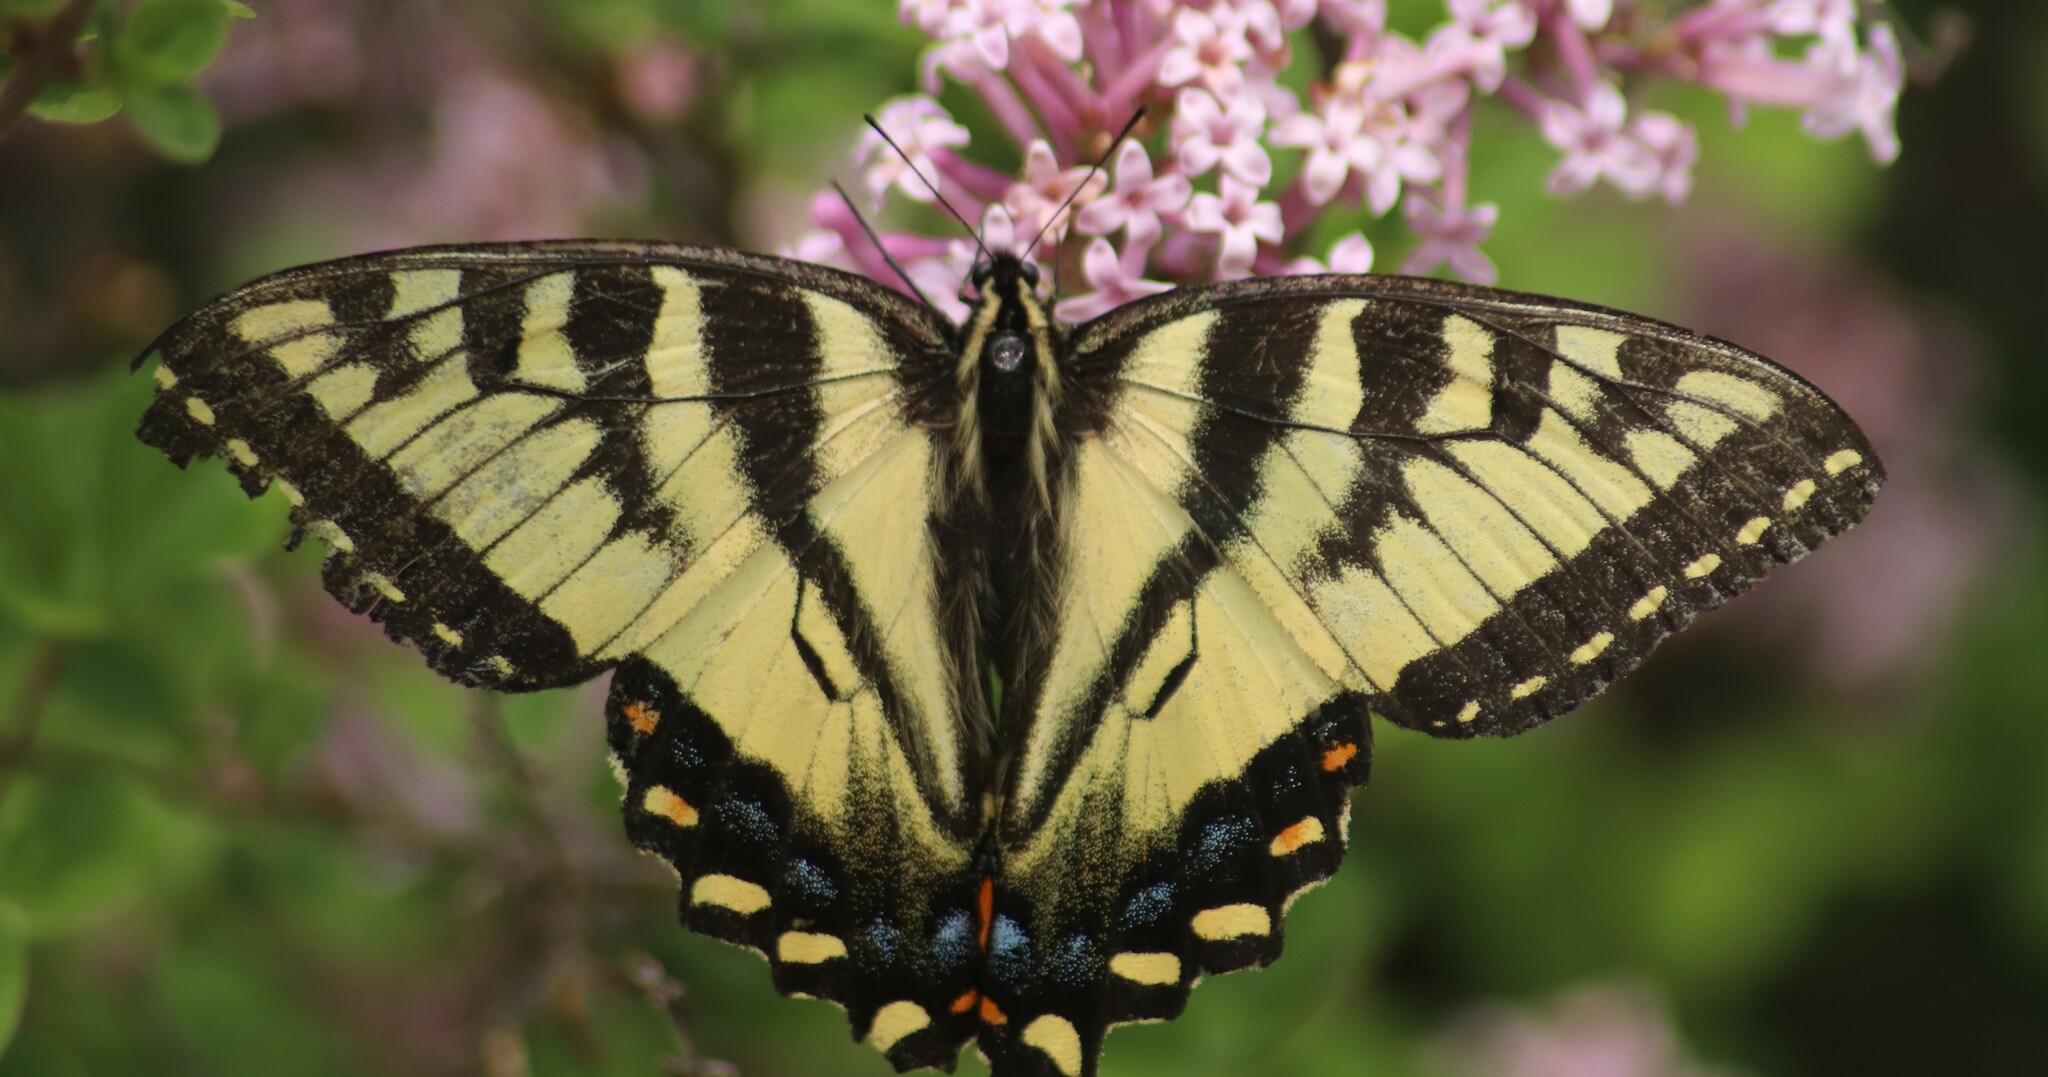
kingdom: Animalia
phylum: Arthropoda
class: Insecta
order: Lepidoptera
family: Papilionidae
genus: Papilio
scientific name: Papilio canadensis
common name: Canadian tiger swallowtail
